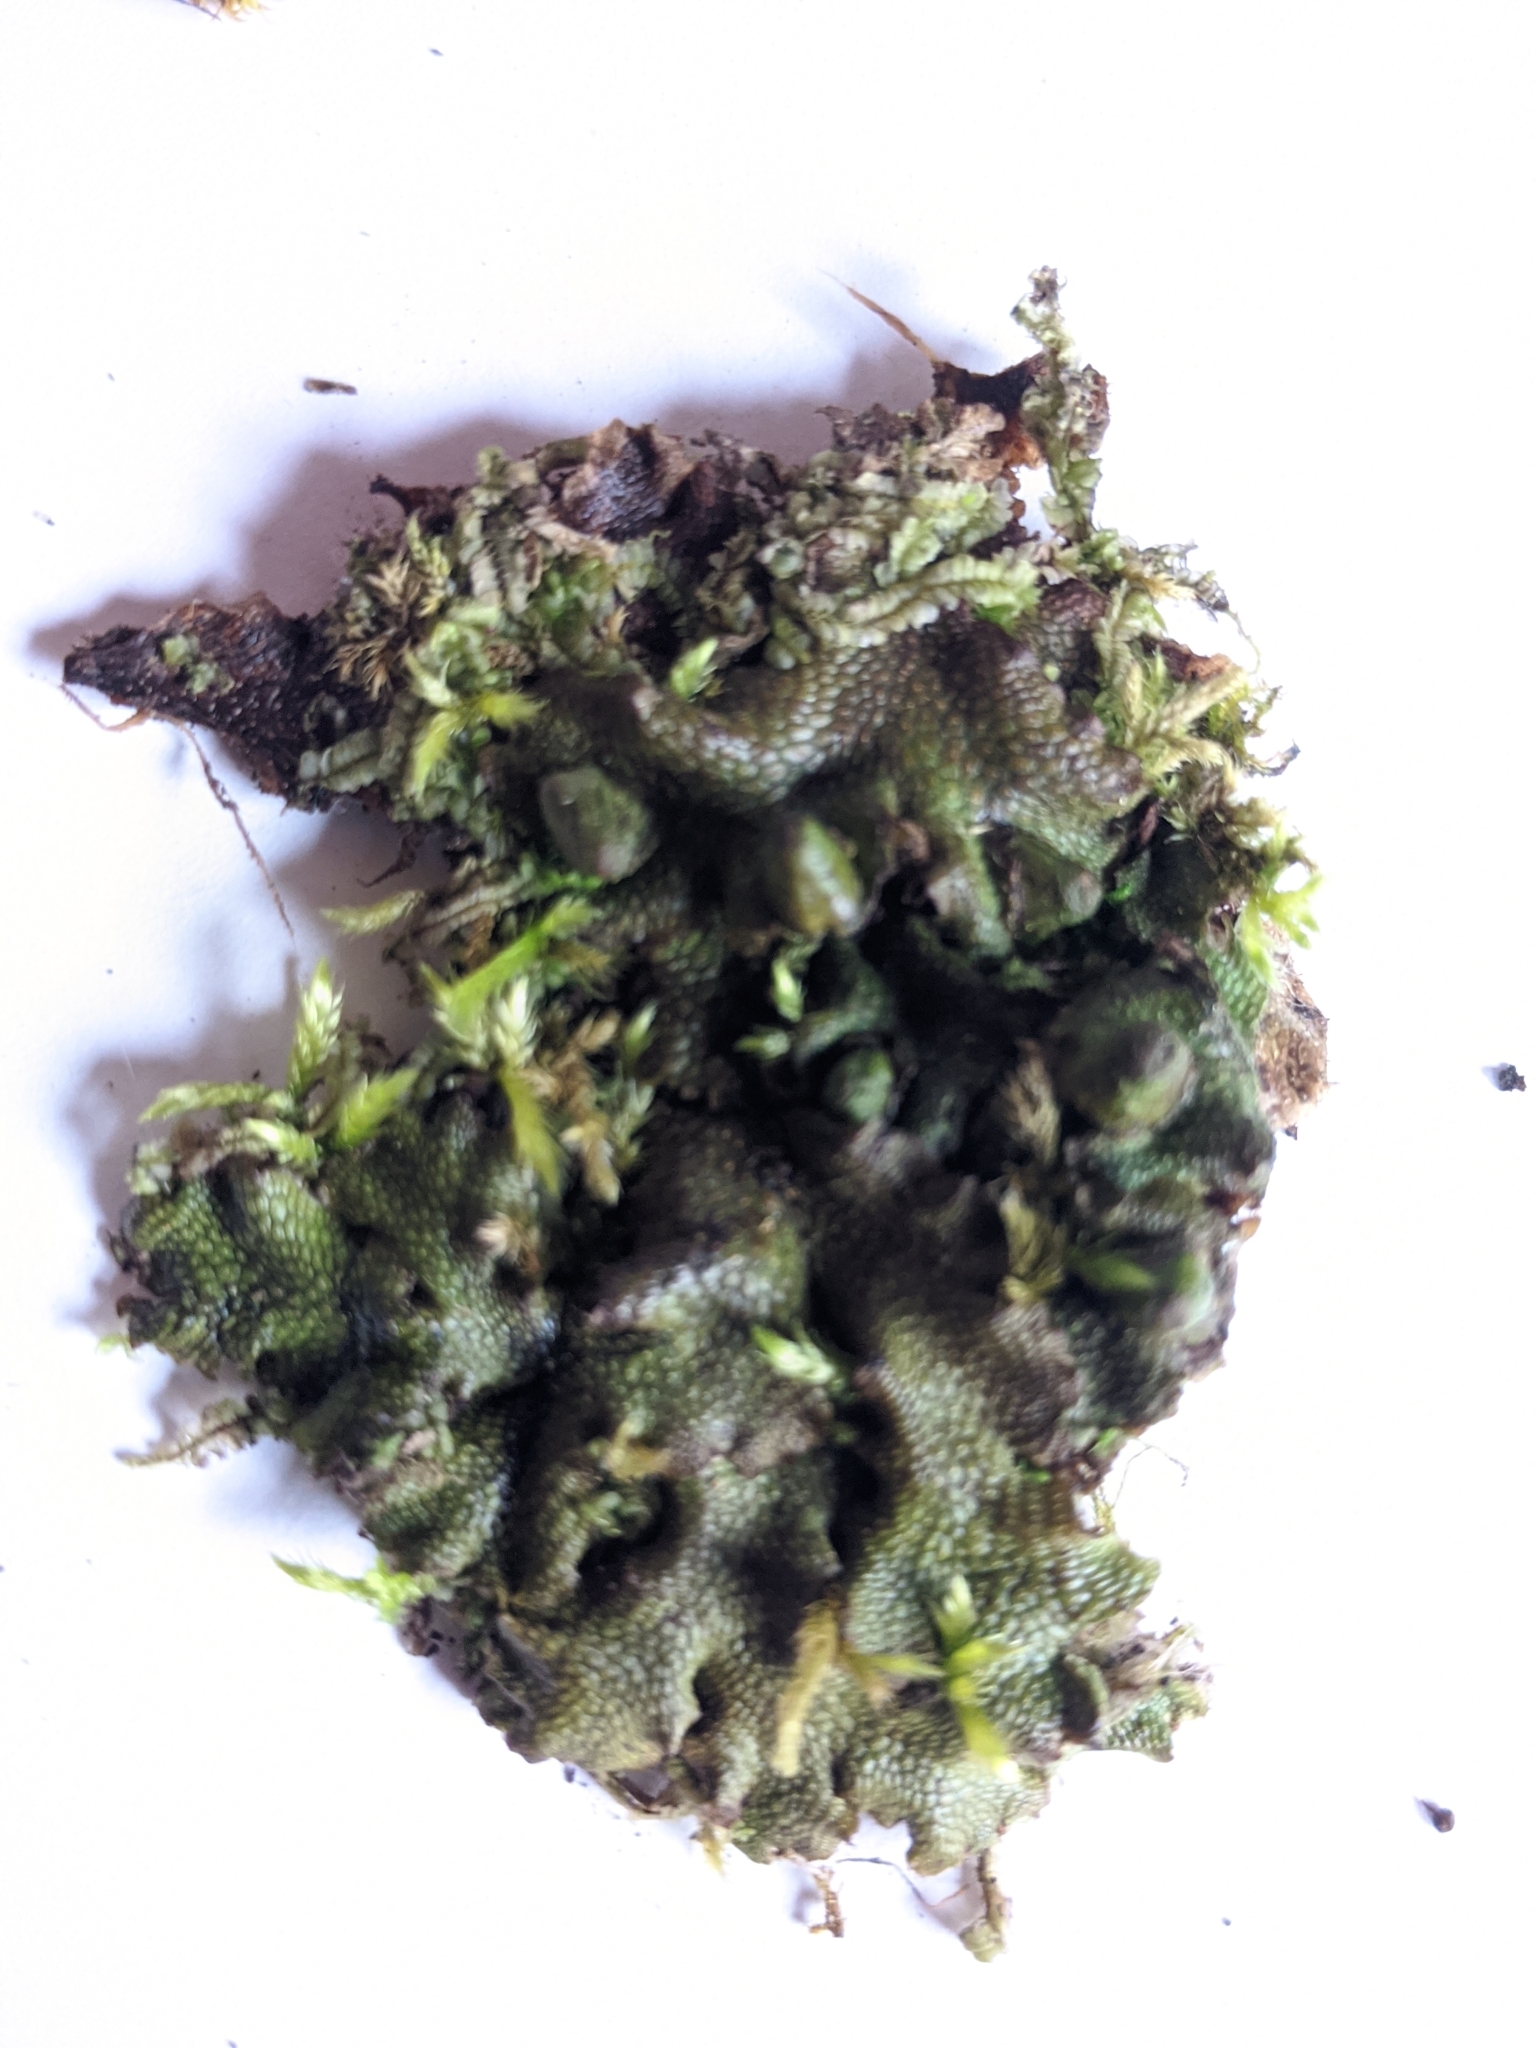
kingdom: Plantae
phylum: Marchantiophyta
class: Marchantiopsida
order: Marchantiales
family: Conocephalaceae
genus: Conocephalum
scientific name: Conocephalum salebrosum
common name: Cat-tongue liverwort
